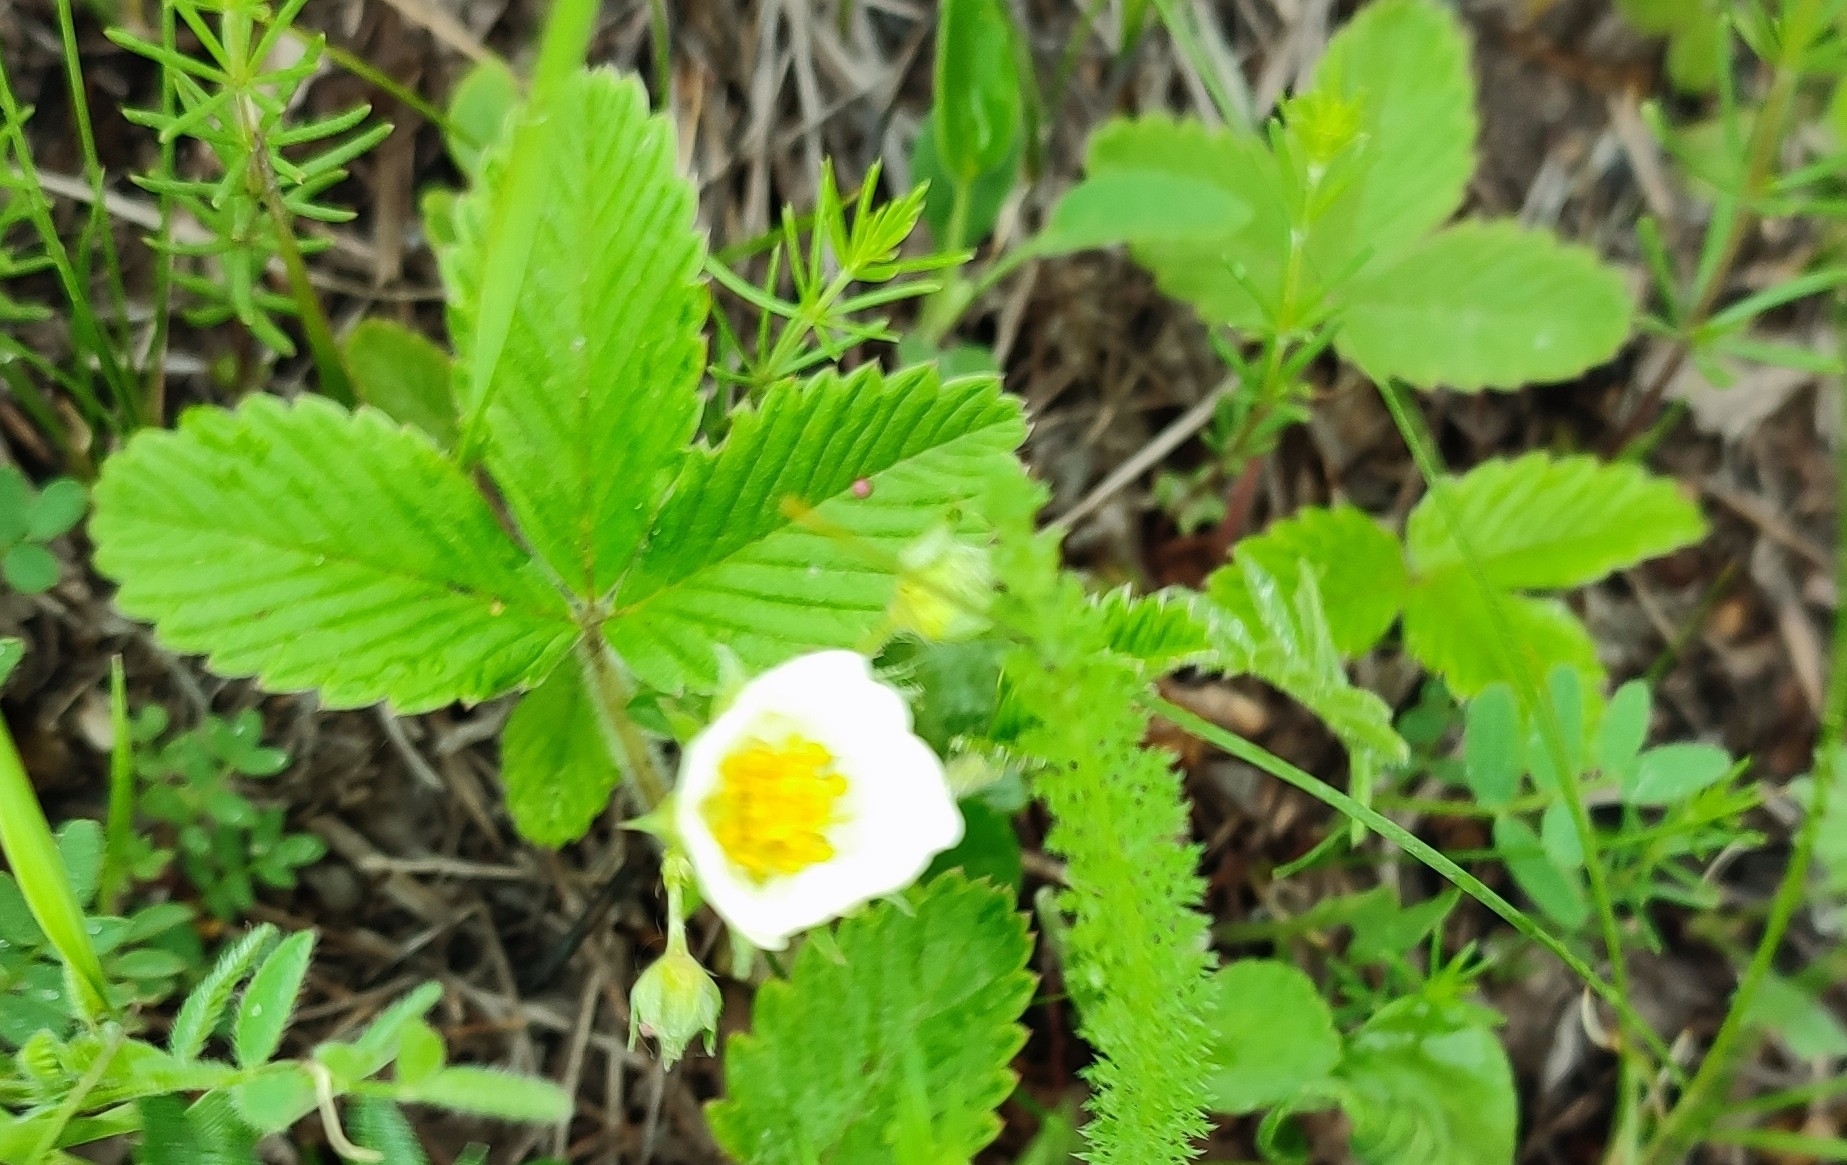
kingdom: Plantae
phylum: Tracheophyta
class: Magnoliopsida
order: Rosales
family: Rosaceae
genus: Fragaria
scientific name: Fragaria viridis
